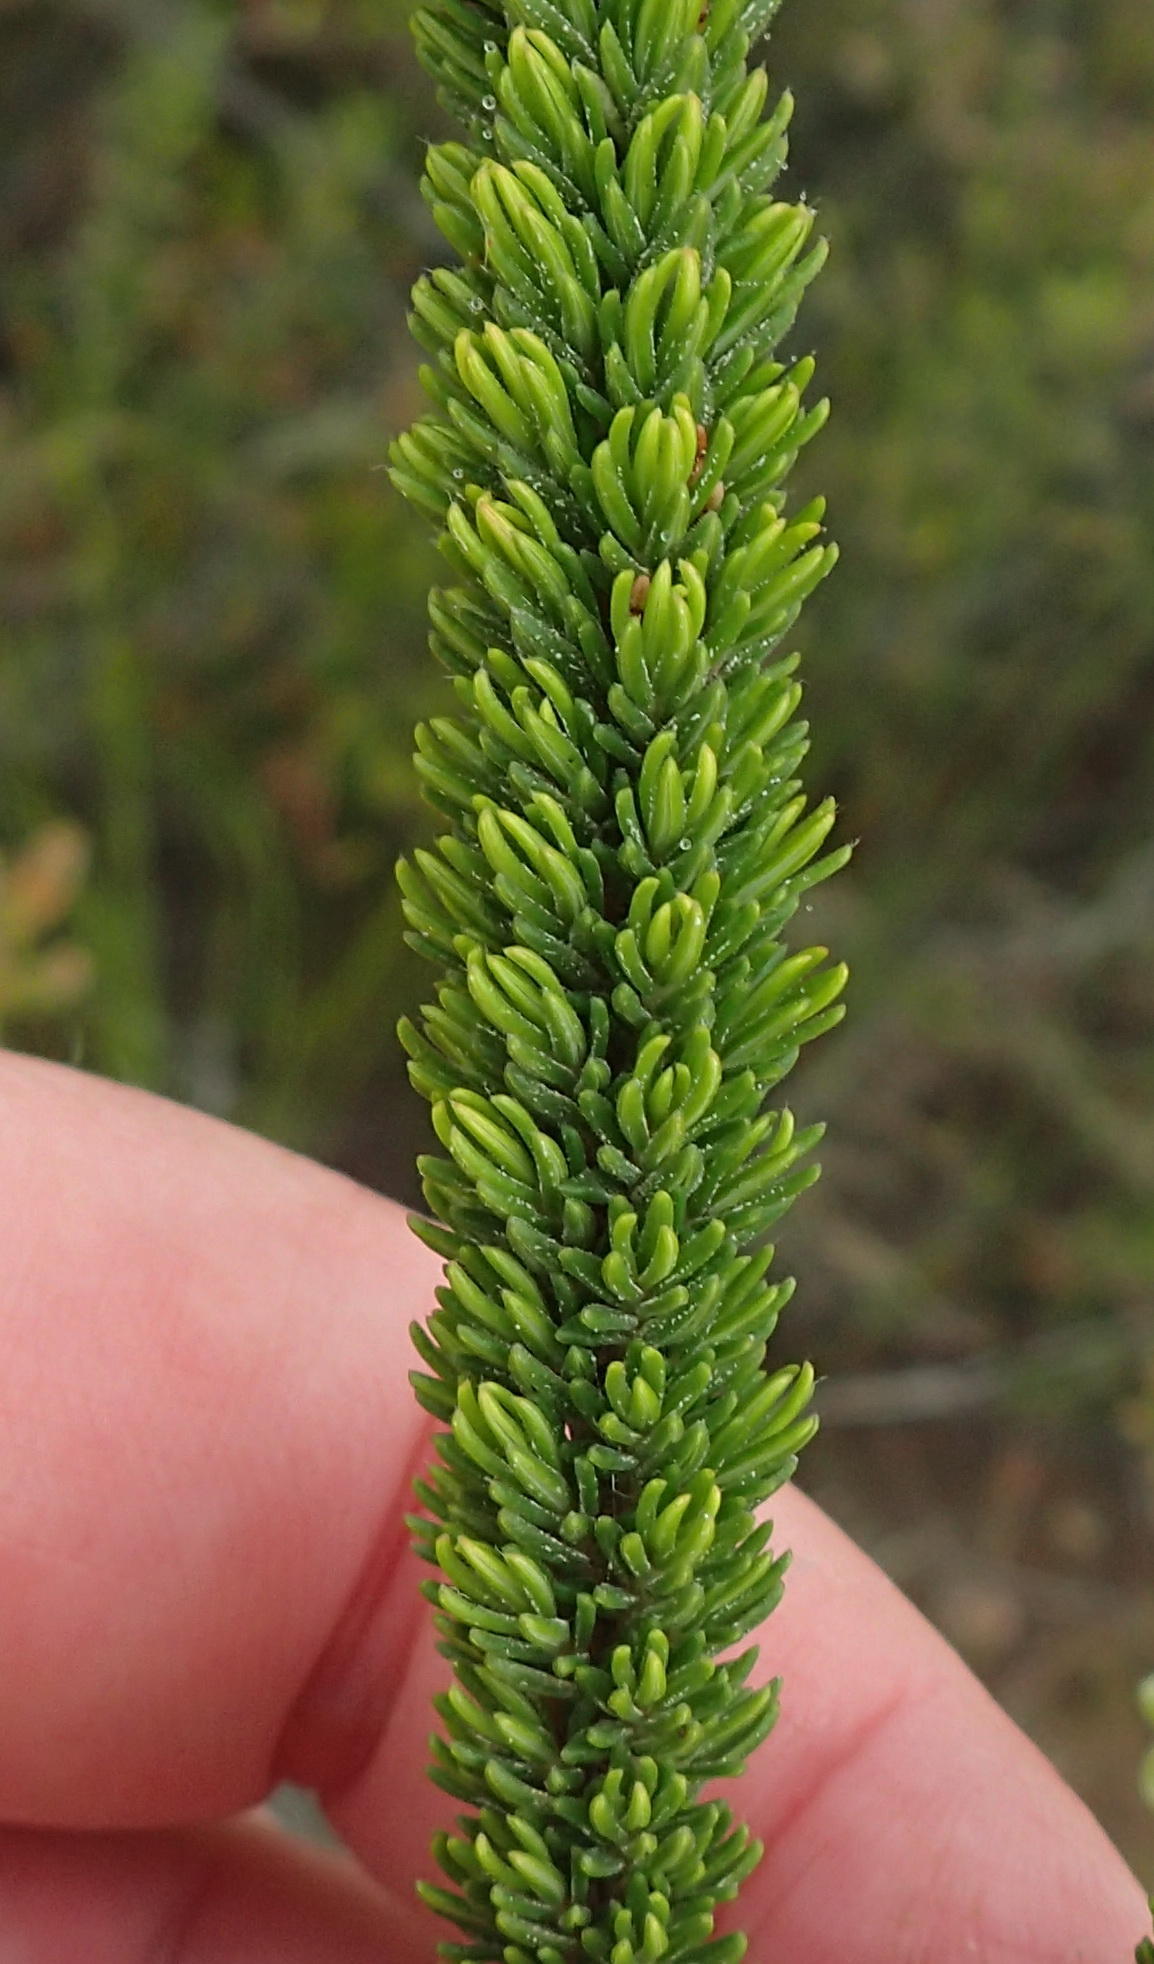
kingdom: Plantae
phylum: Tracheophyta
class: Magnoliopsida
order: Ericales
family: Ericaceae
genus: Erica
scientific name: Erica densifolia
